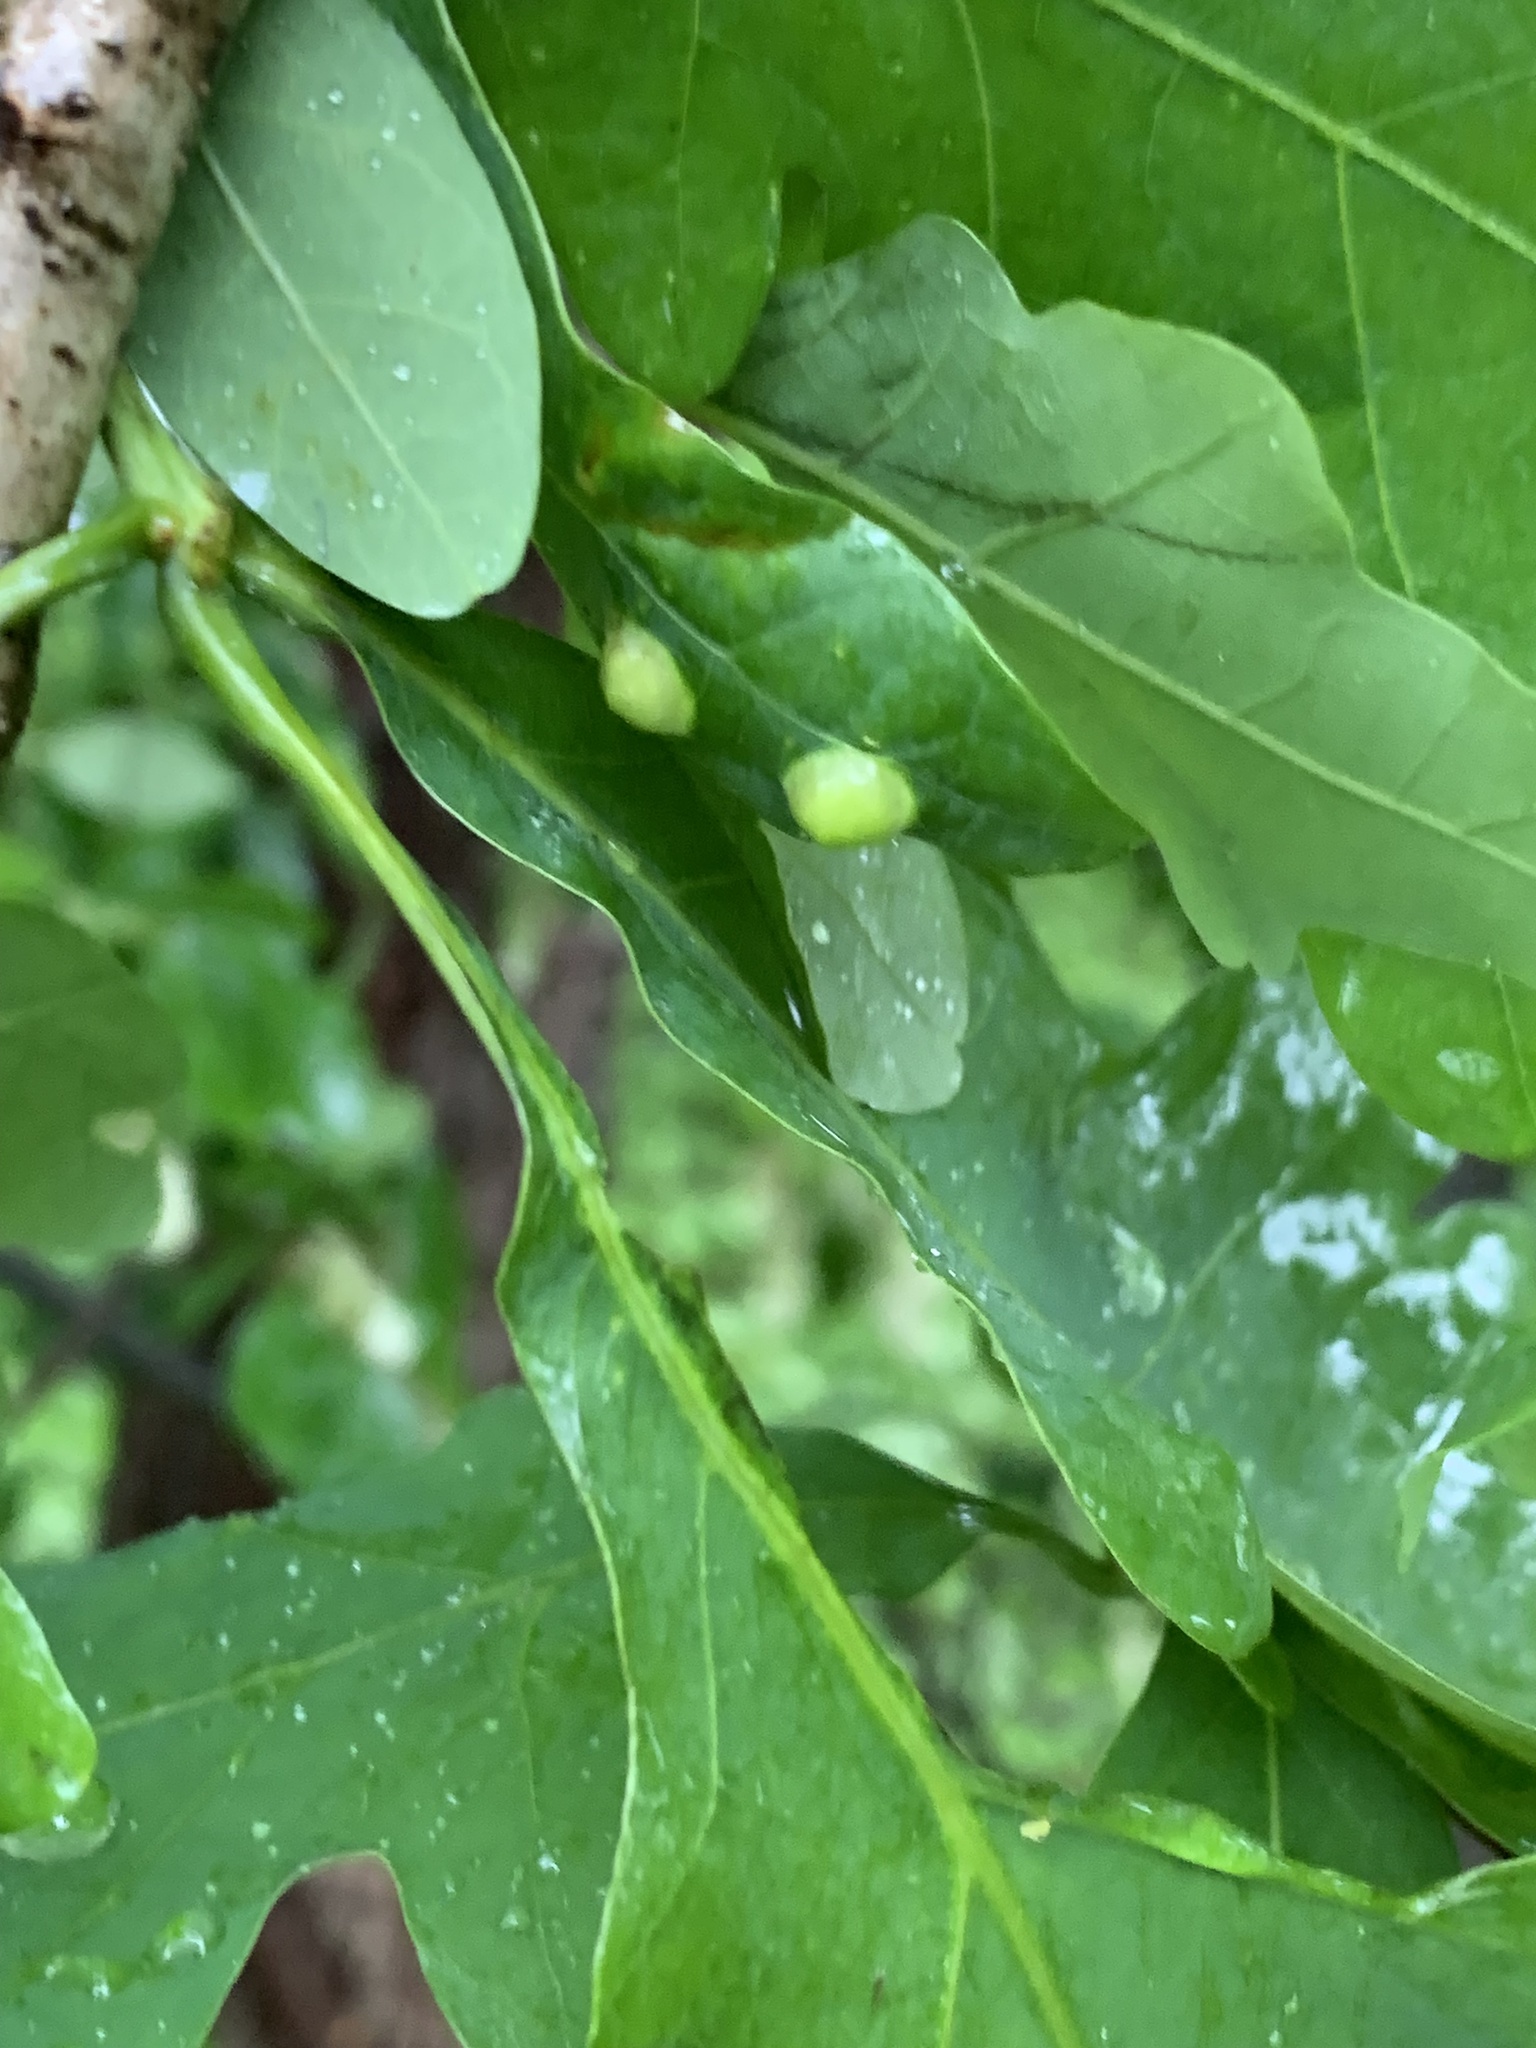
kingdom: Animalia
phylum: Arthropoda
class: Insecta
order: Hymenoptera
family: Cynipidae
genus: Callirhytis
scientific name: Callirhytis
